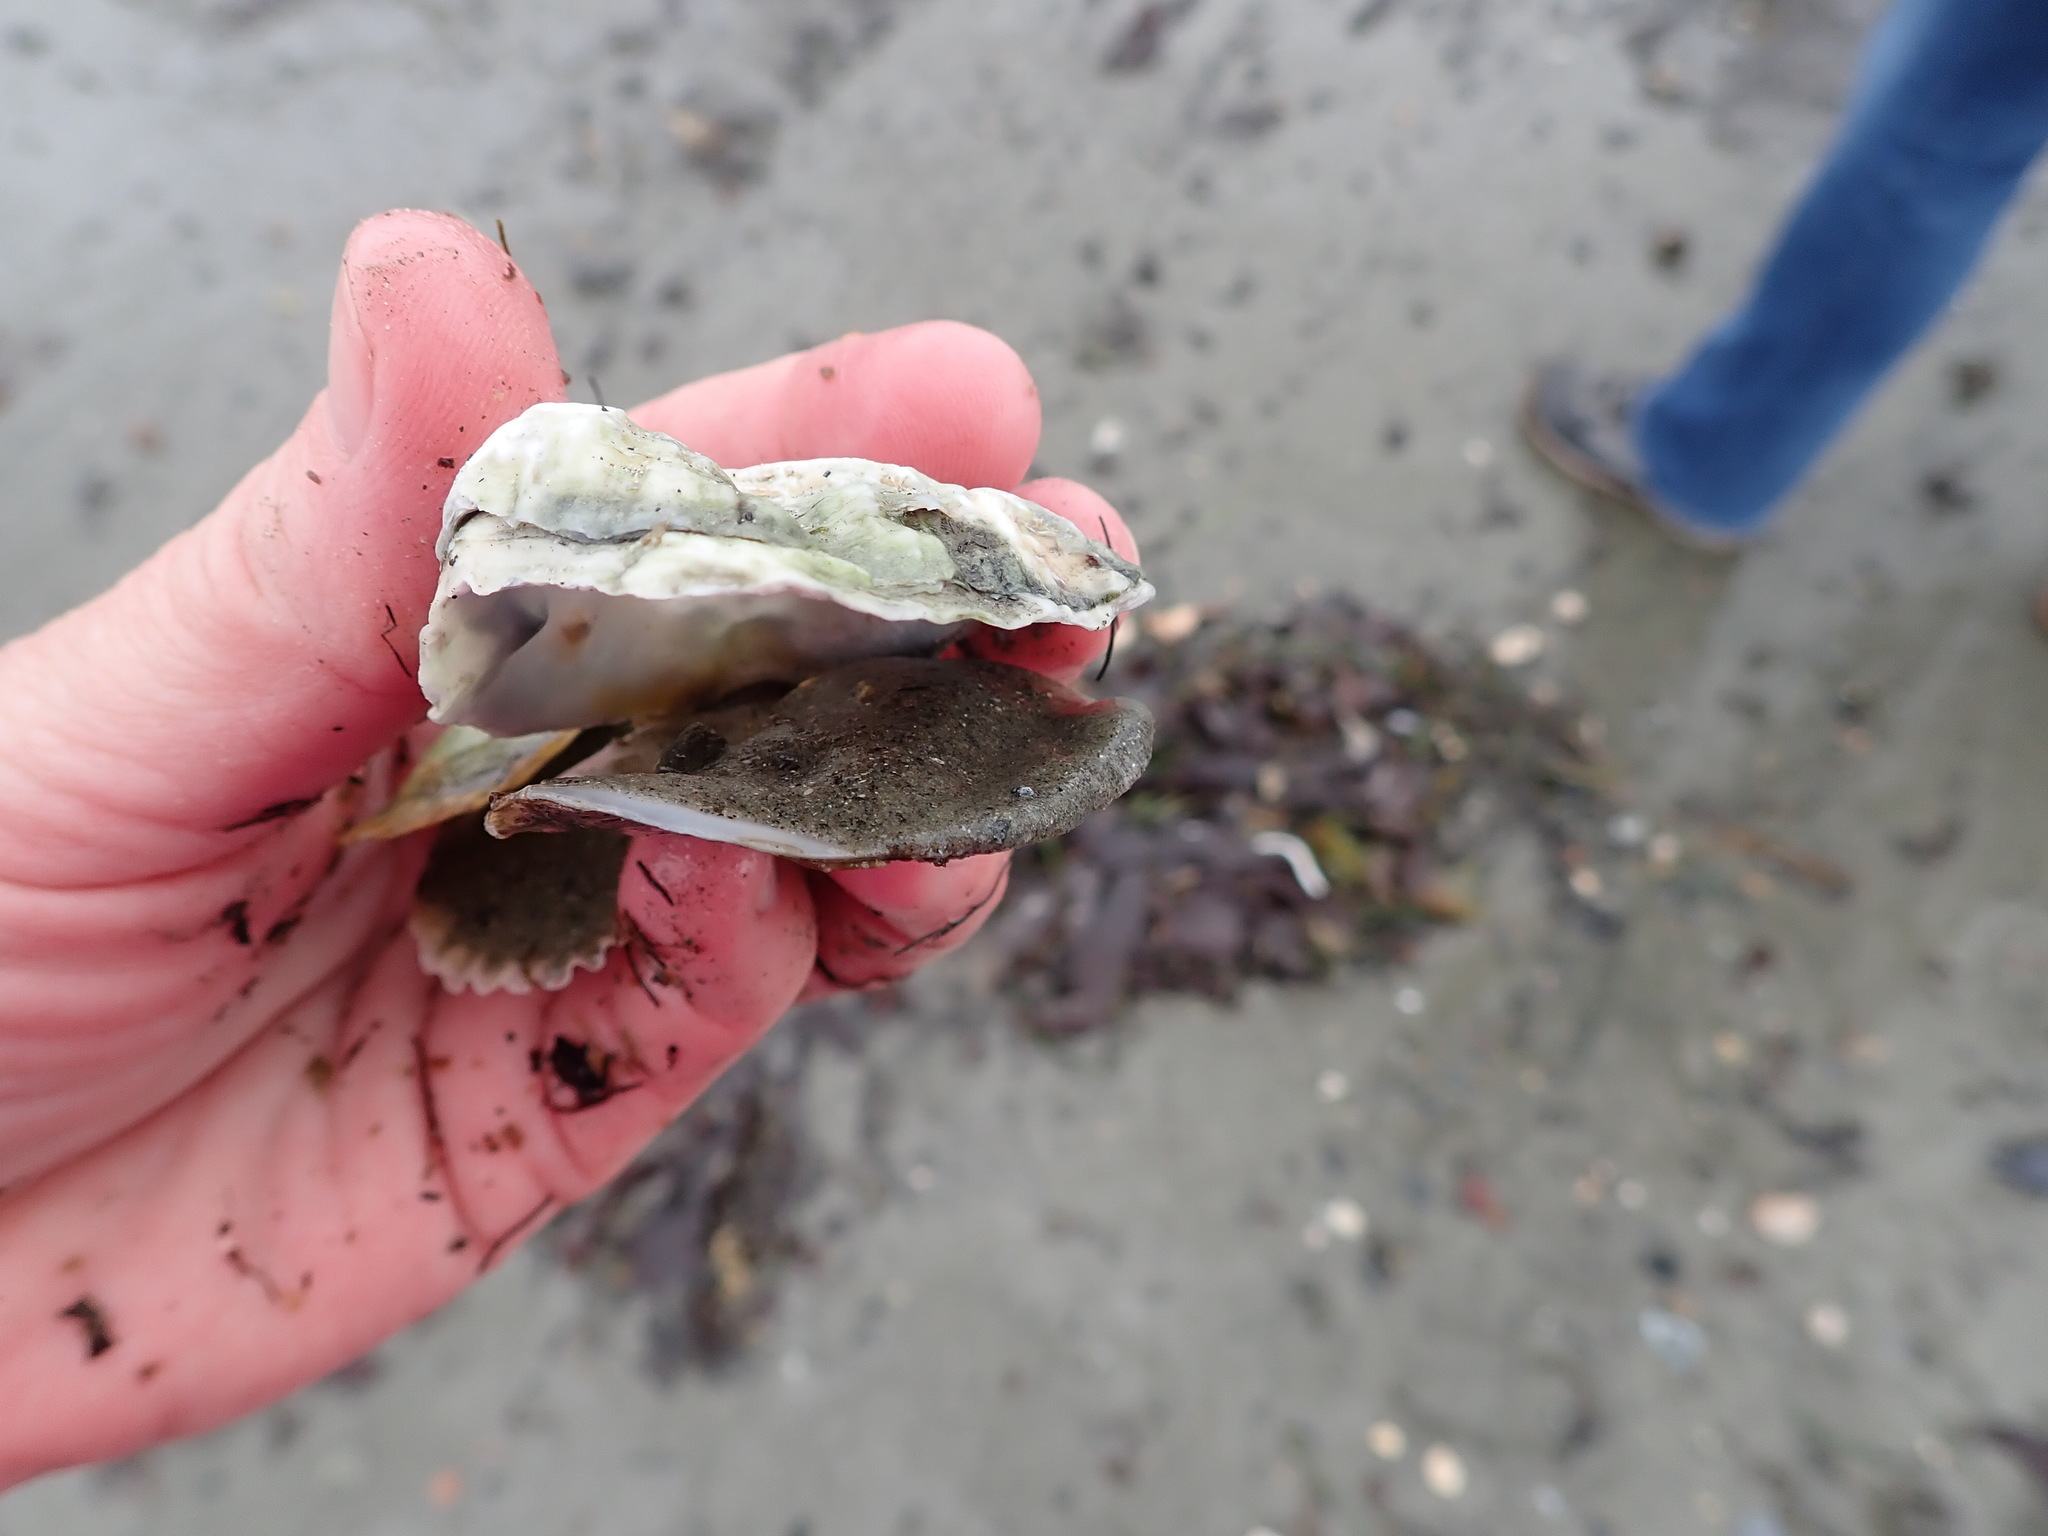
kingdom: Animalia
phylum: Mollusca
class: Bivalvia
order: Ostreida
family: Ostreidae
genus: Ostrea
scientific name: Ostrea edulis
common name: Flat oyster
